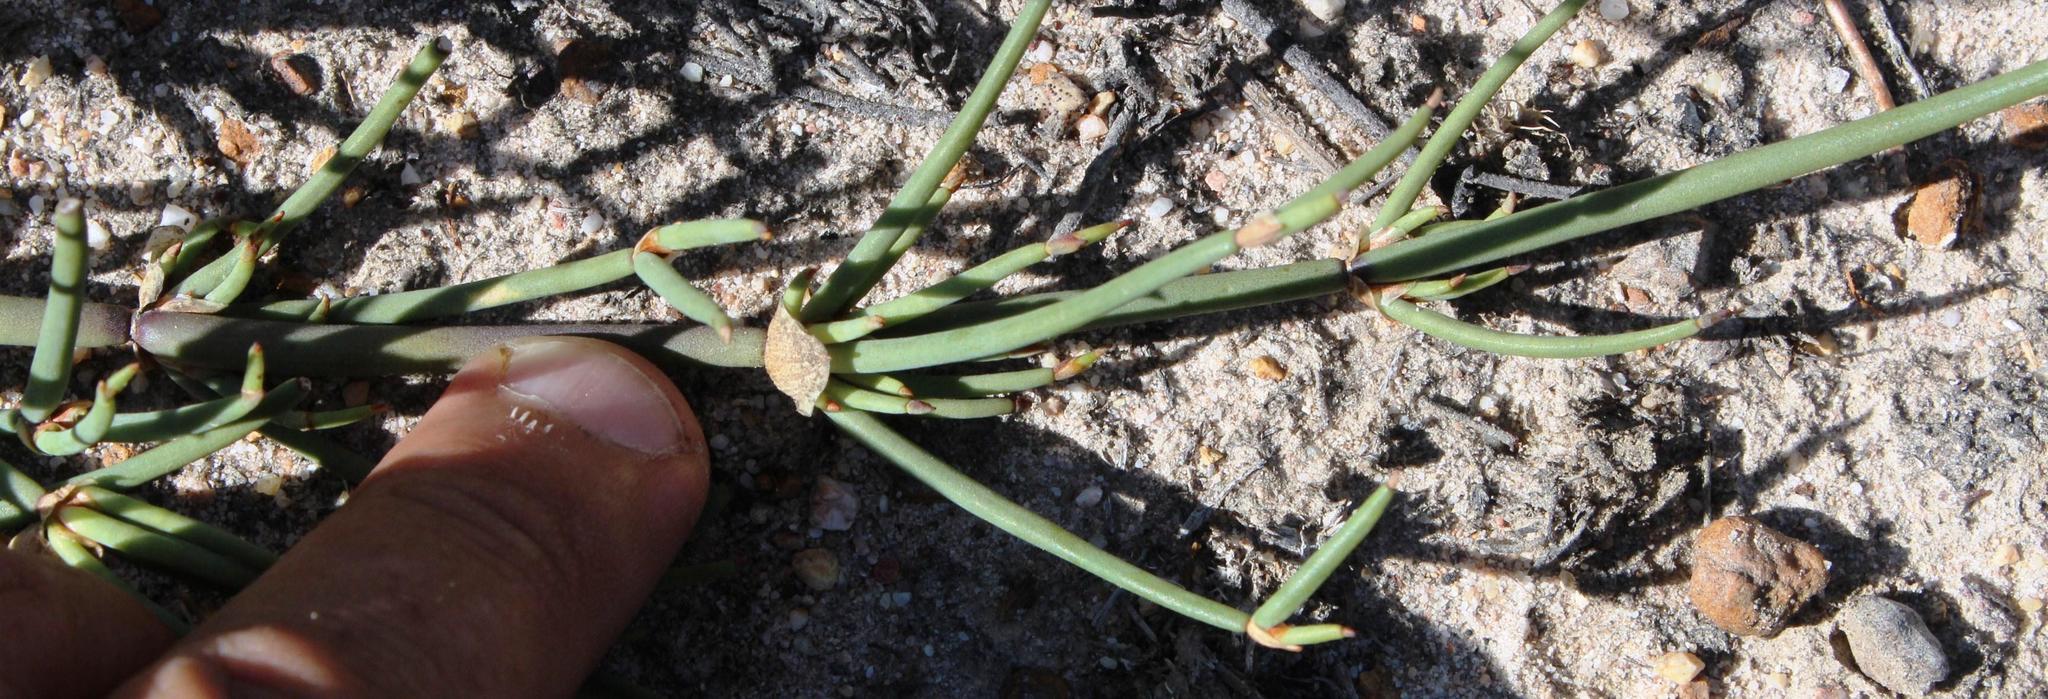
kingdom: Plantae
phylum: Tracheophyta
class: Liliopsida
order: Poales
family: Restionaceae
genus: Elegia
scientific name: Elegia extensa
